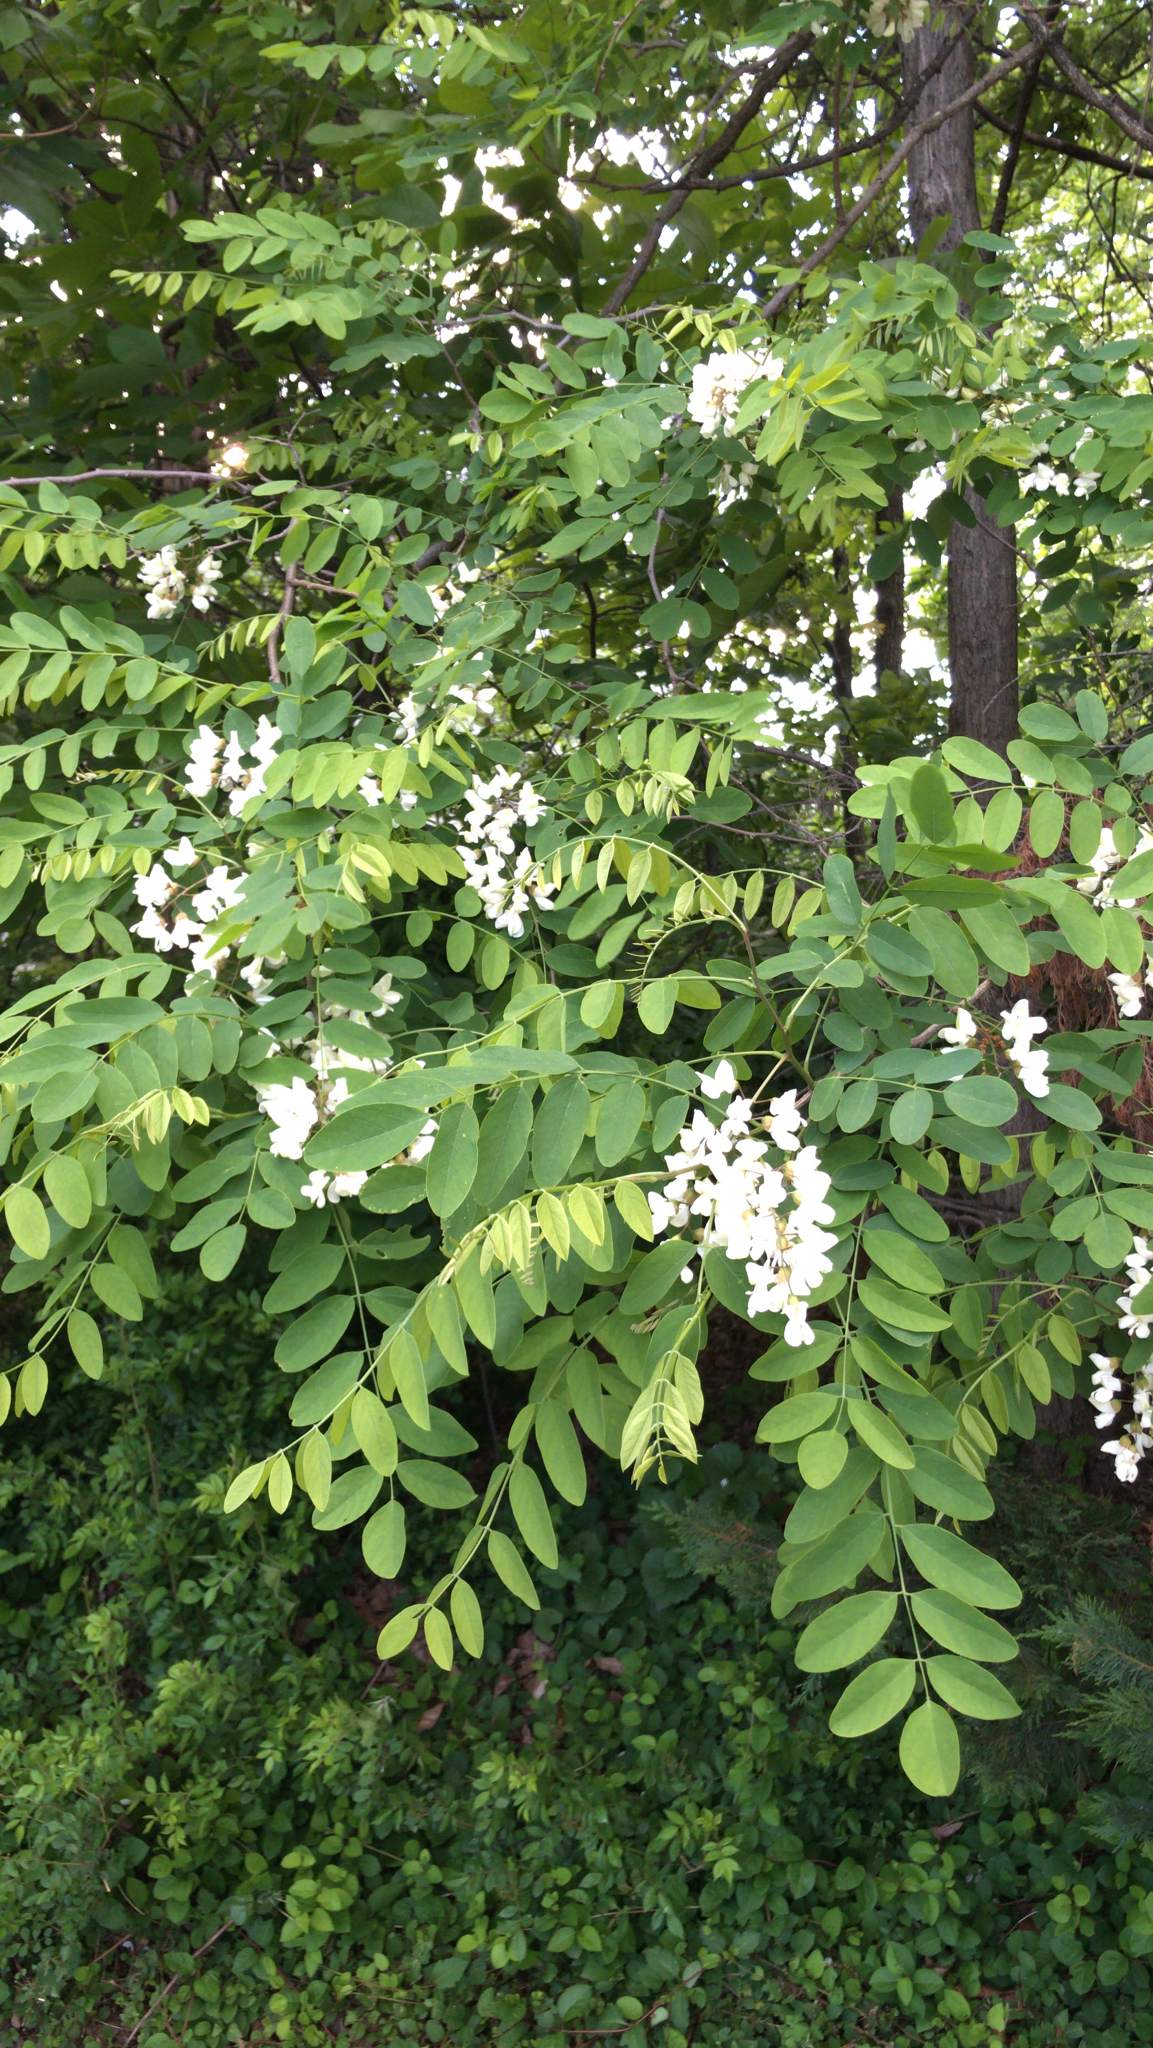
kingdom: Plantae
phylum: Tracheophyta
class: Magnoliopsida
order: Fabales
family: Fabaceae
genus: Robinia
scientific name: Robinia pseudoacacia
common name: Black locust
